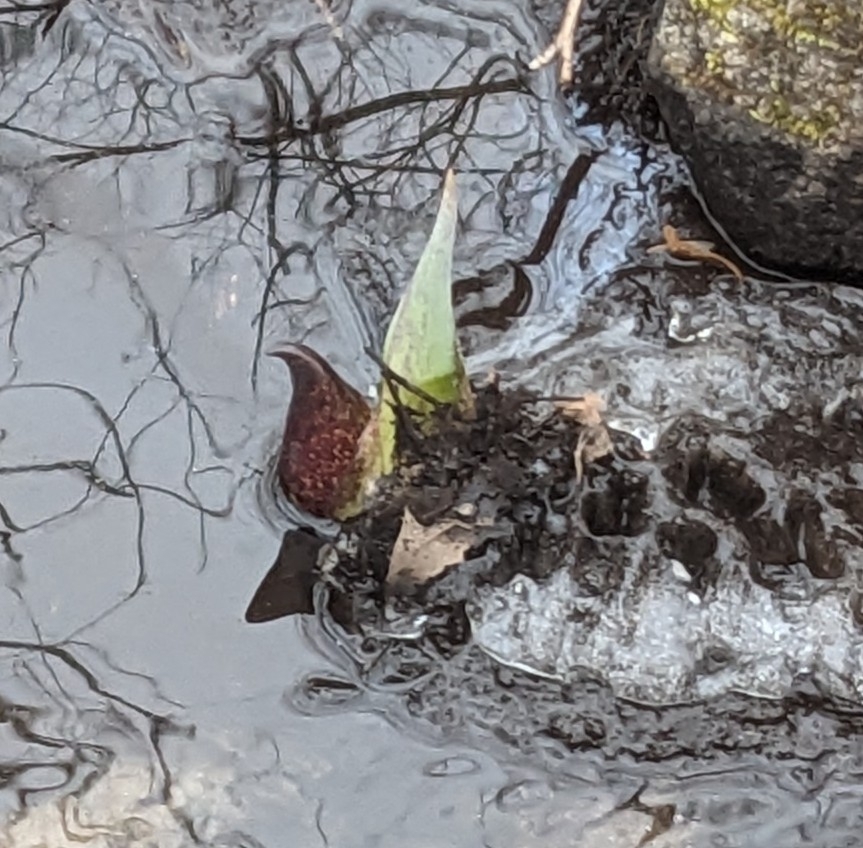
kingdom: Plantae
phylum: Tracheophyta
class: Liliopsida
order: Alismatales
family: Araceae
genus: Symplocarpus
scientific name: Symplocarpus foetidus
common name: Eastern skunk cabbage
